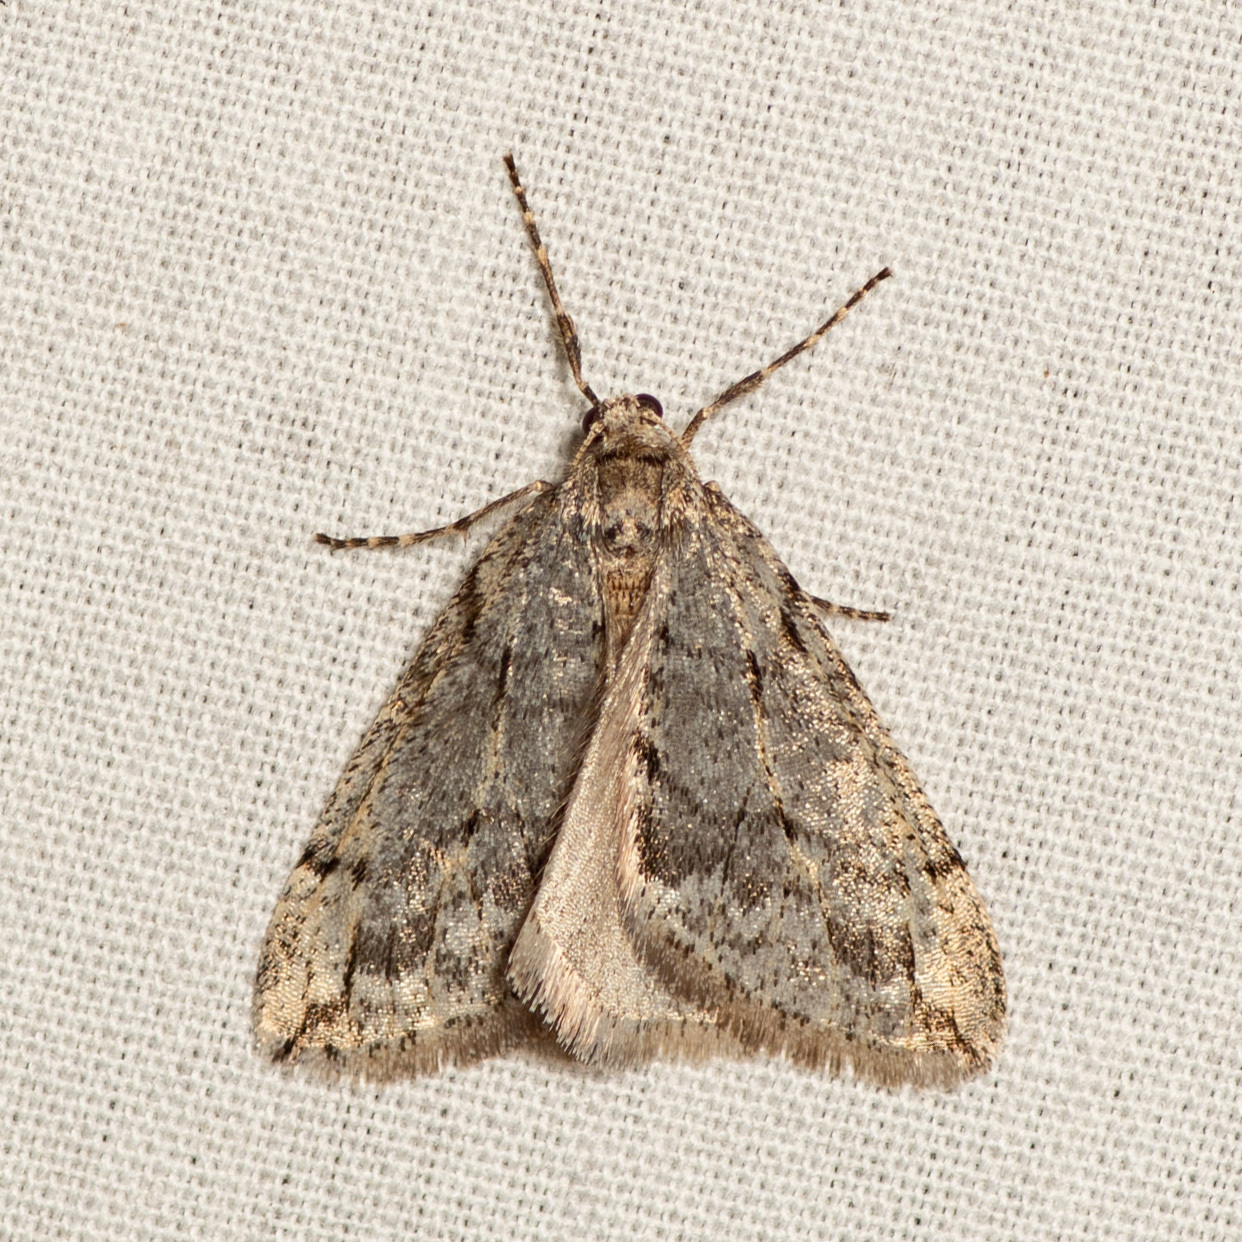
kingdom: Animalia
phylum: Arthropoda
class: Insecta
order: Lepidoptera
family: Geometridae
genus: Paleacrita
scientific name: Paleacrita vernata
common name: Spring cankerworm
